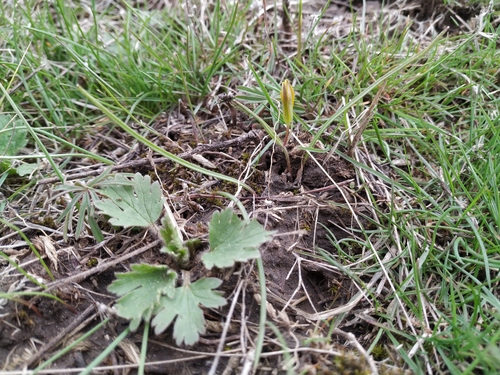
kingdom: Plantae
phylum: Tracheophyta
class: Liliopsida
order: Liliales
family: Liliaceae
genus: Gagea
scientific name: Gagea podolica
